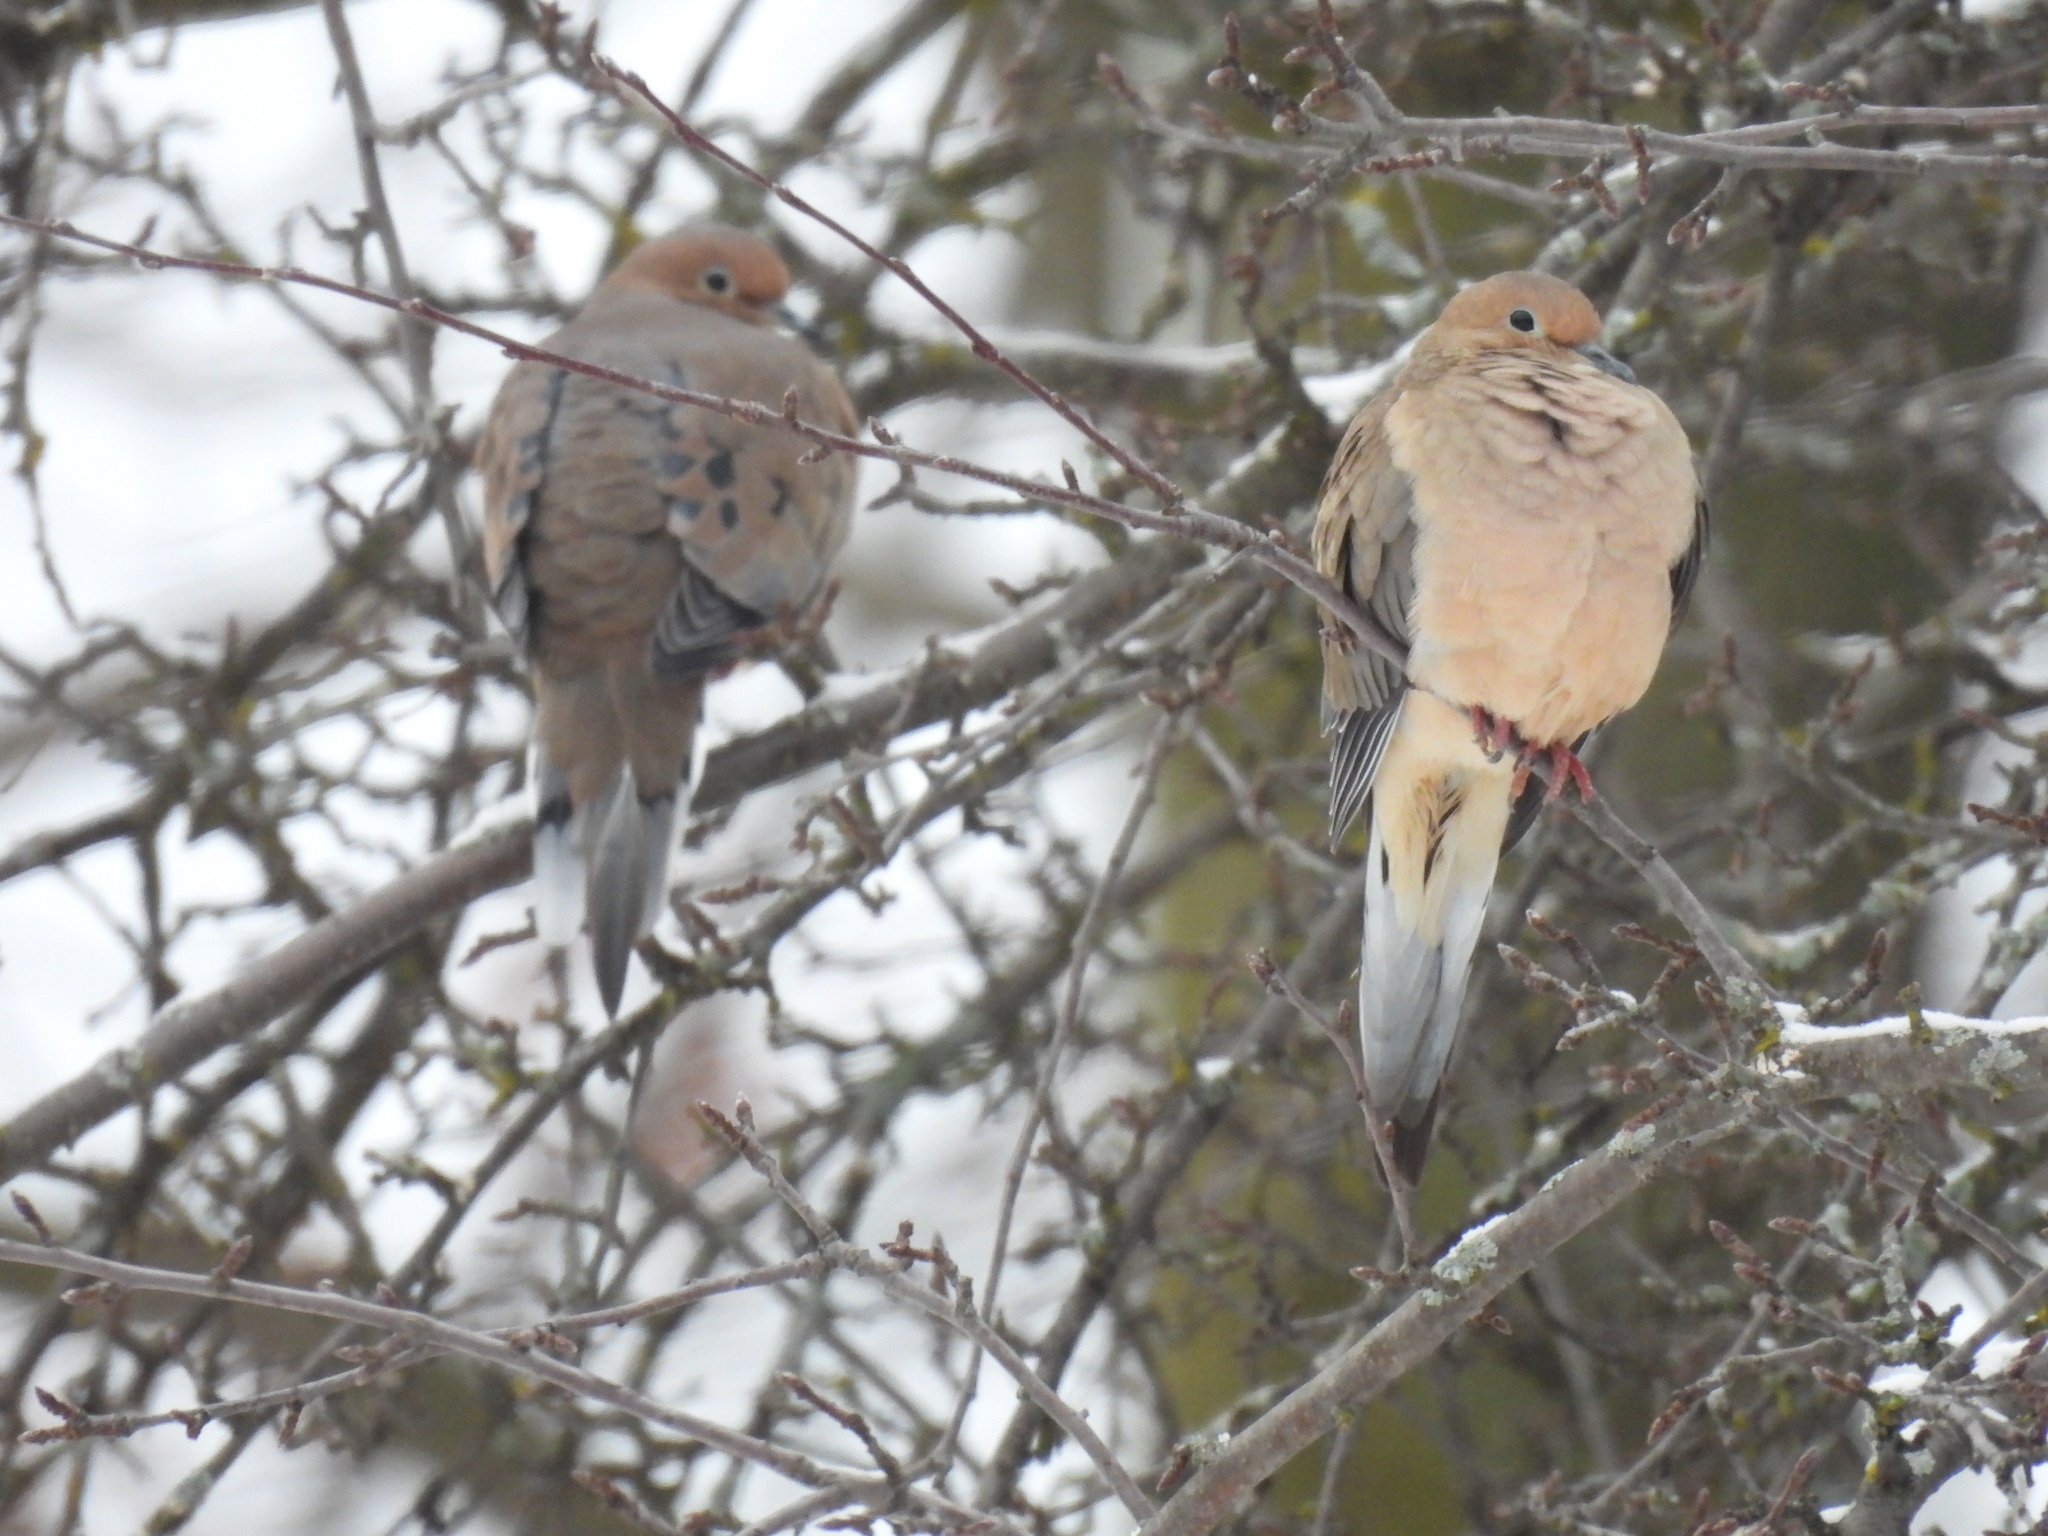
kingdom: Animalia
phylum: Chordata
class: Aves
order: Columbiformes
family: Columbidae
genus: Zenaida
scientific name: Zenaida macroura
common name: Mourning dove
